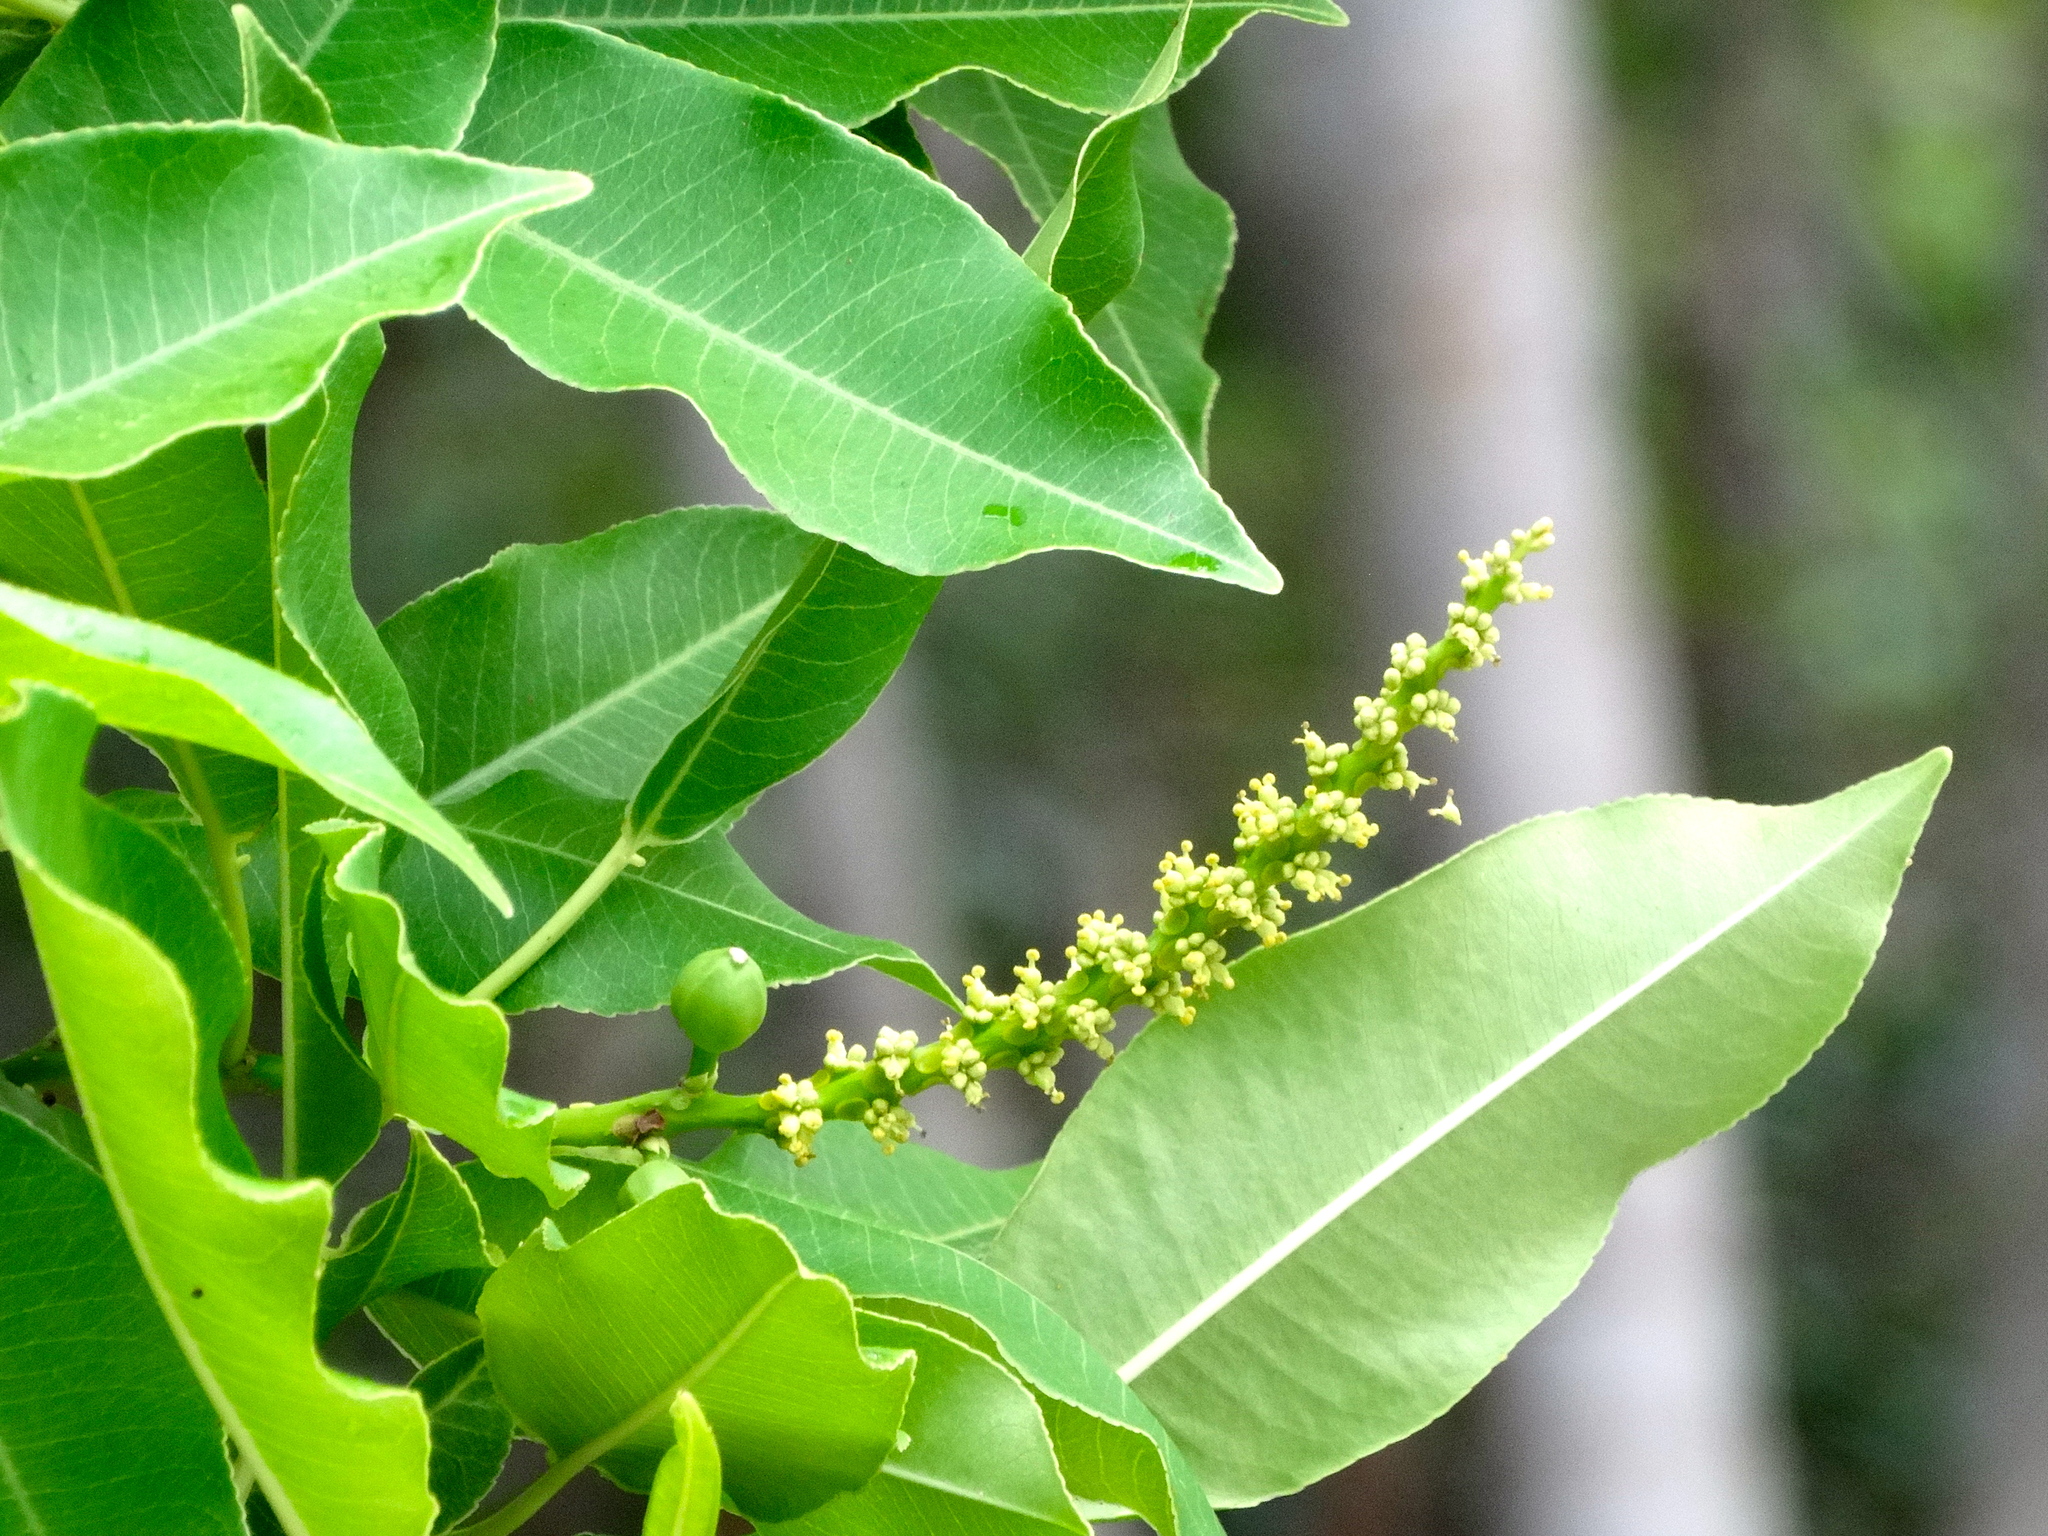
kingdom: Plantae
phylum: Tracheophyta
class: Magnoliopsida
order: Malpighiales
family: Euphorbiaceae
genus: Sapium
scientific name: Sapium lateriflorum
